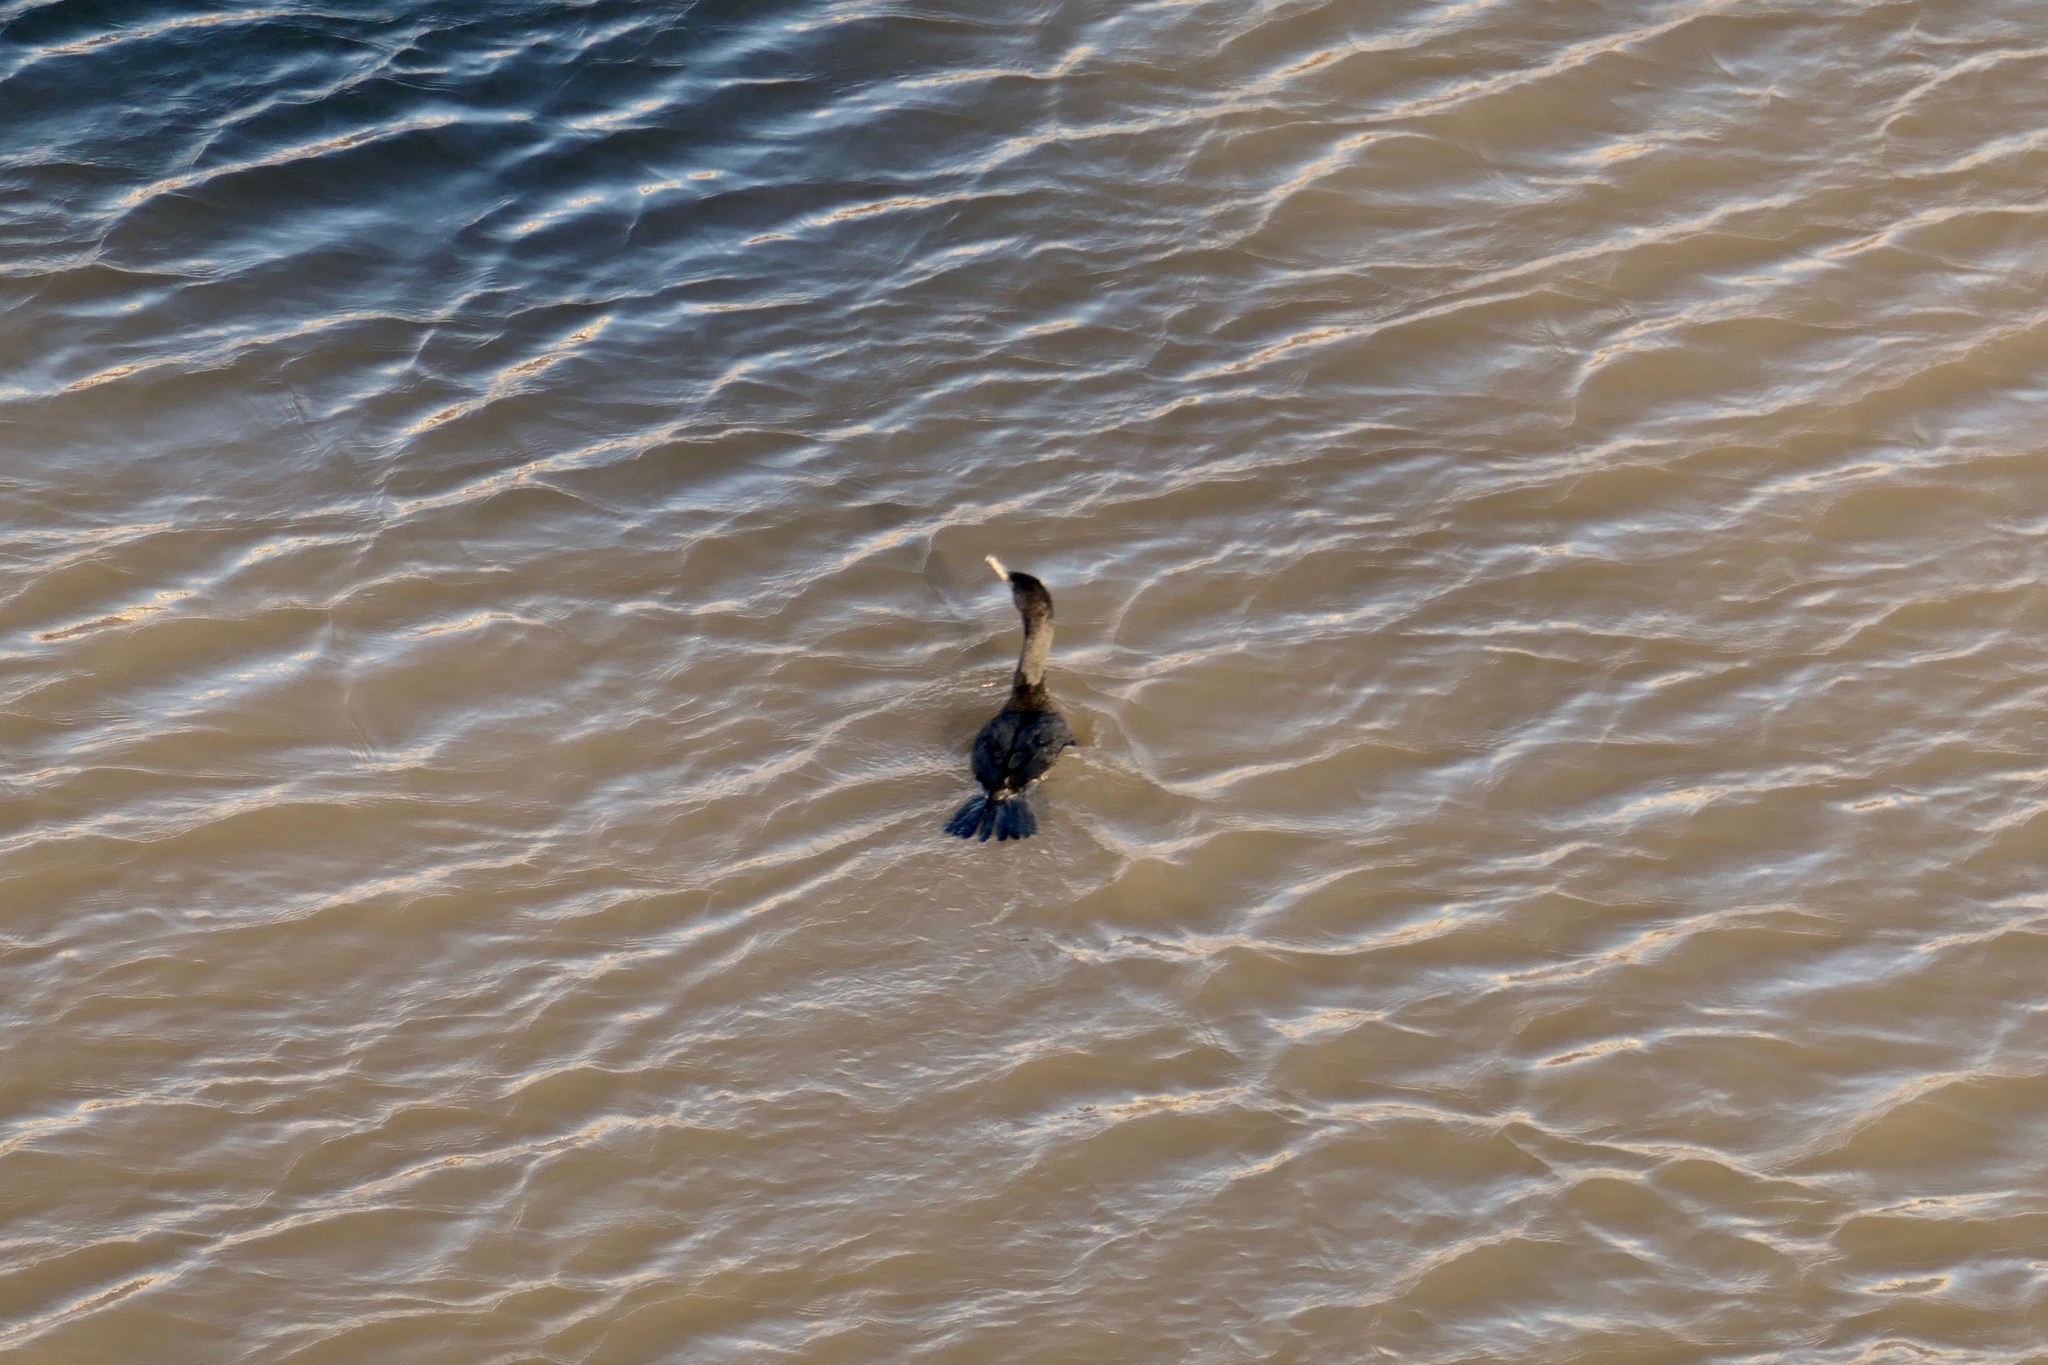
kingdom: Animalia
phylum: Chordata
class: Aves
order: Suliformes
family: Phalacrocoracidae
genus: Phalacrocorax
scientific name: Phalacrocorax auritus
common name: Double-crested cormorant
